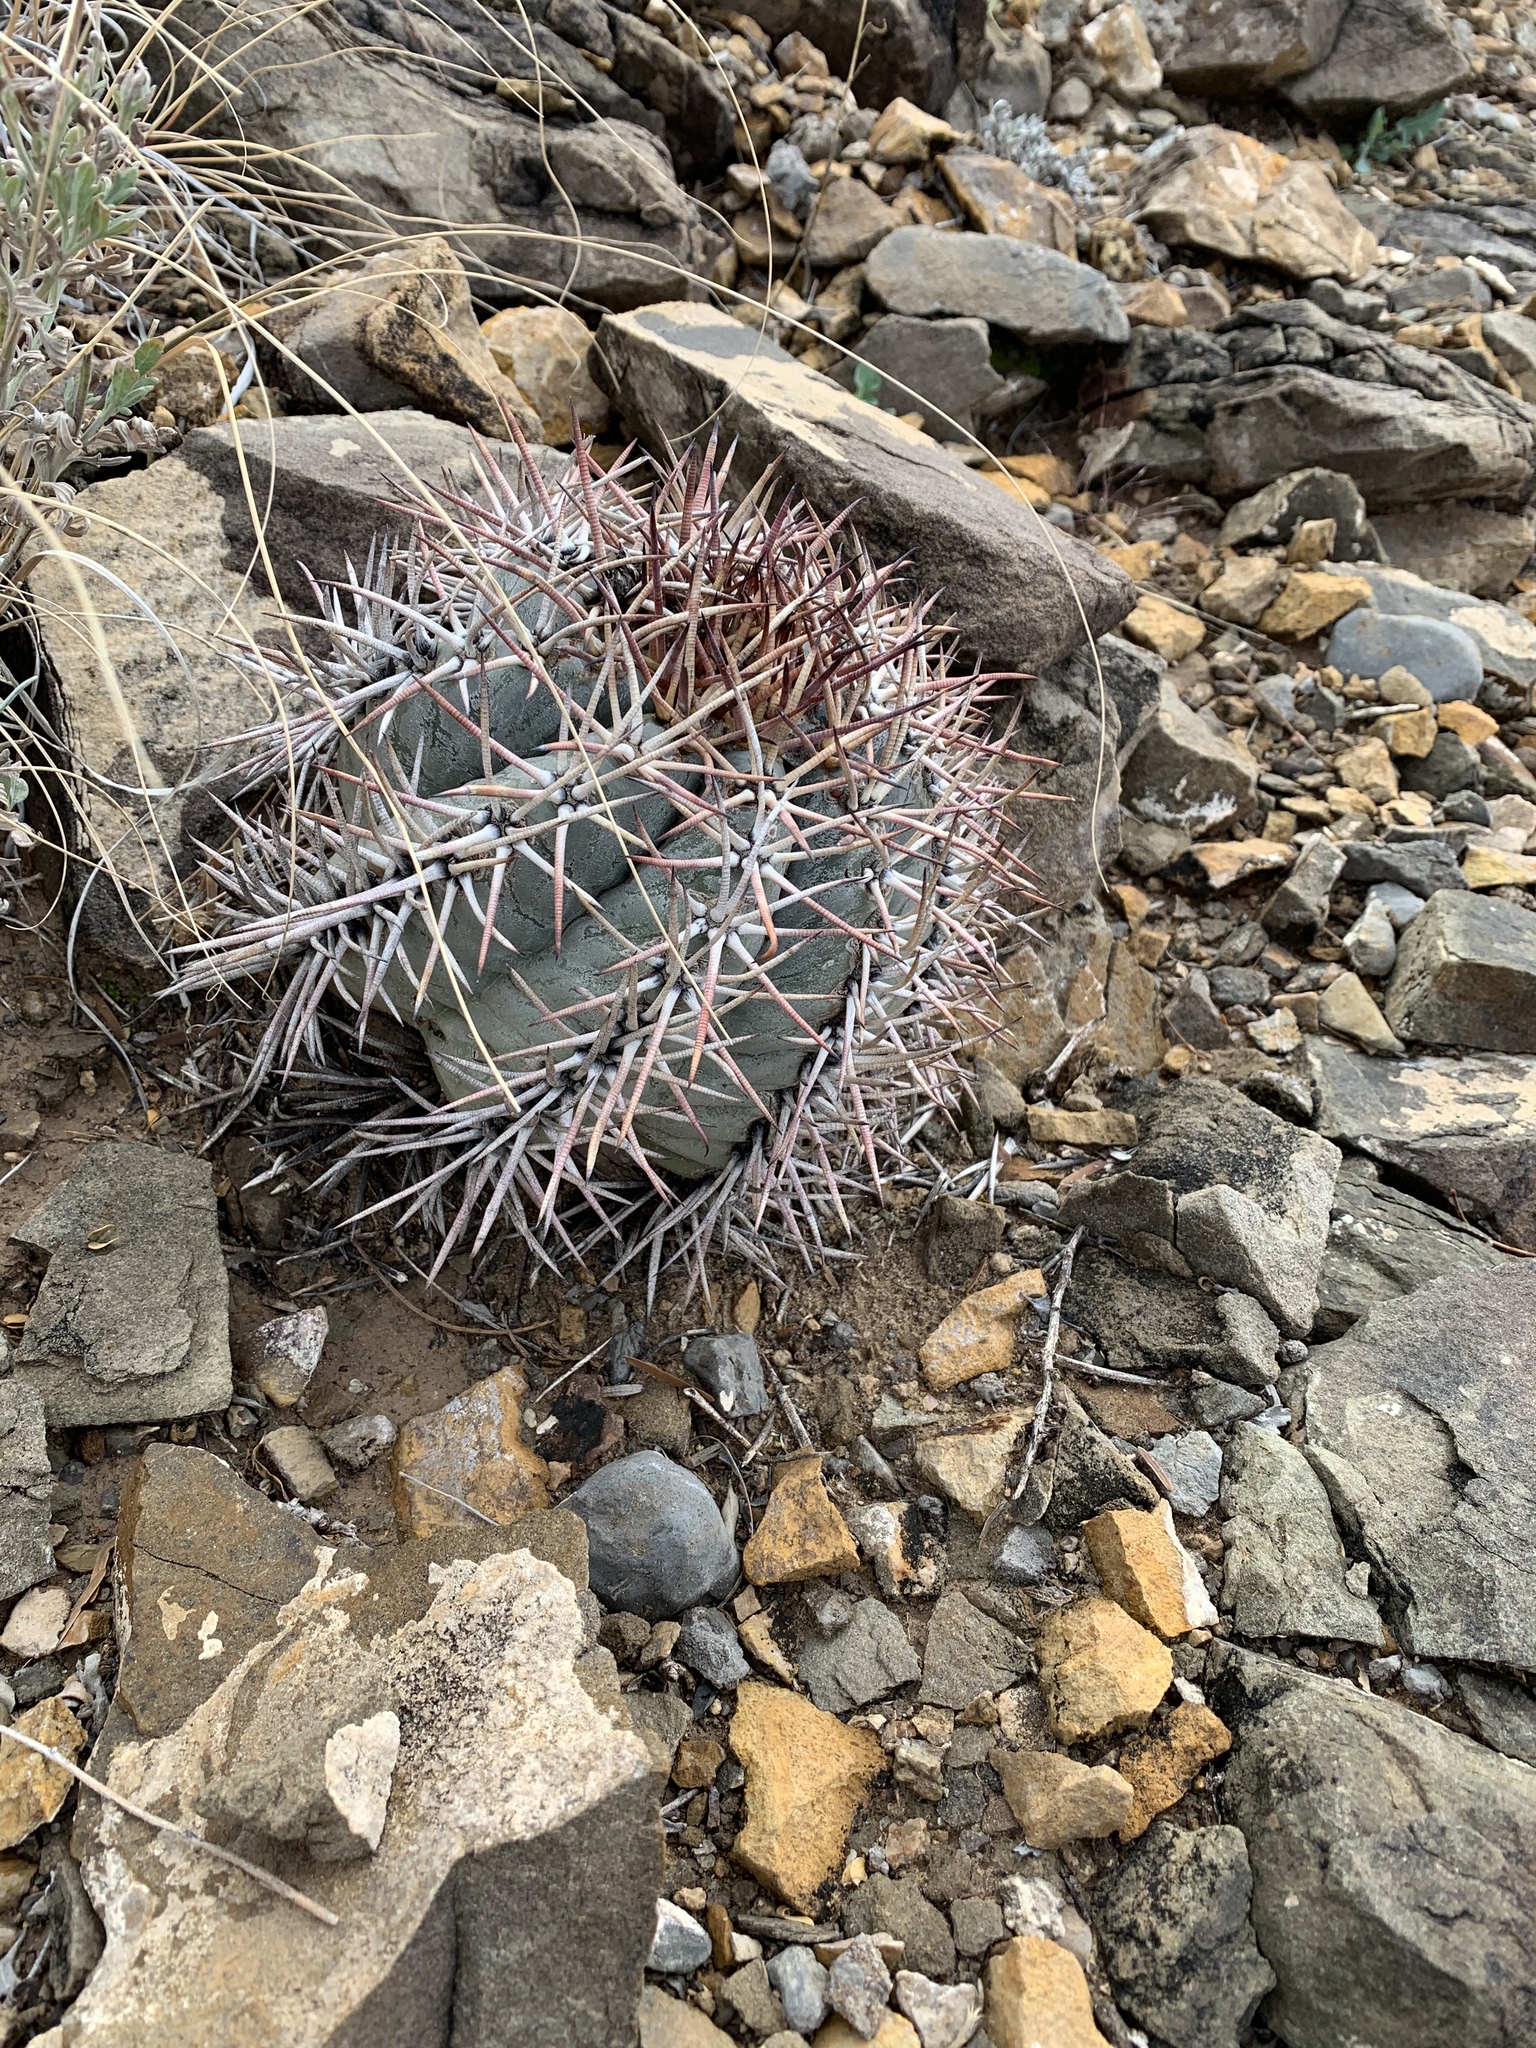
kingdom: Plantae
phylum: Tracheophyta
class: Magnoliopsida
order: Caryophyllales
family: Cactaceae
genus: Echinocactus
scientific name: Echinocactus horizonthalonius
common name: Devilshead
